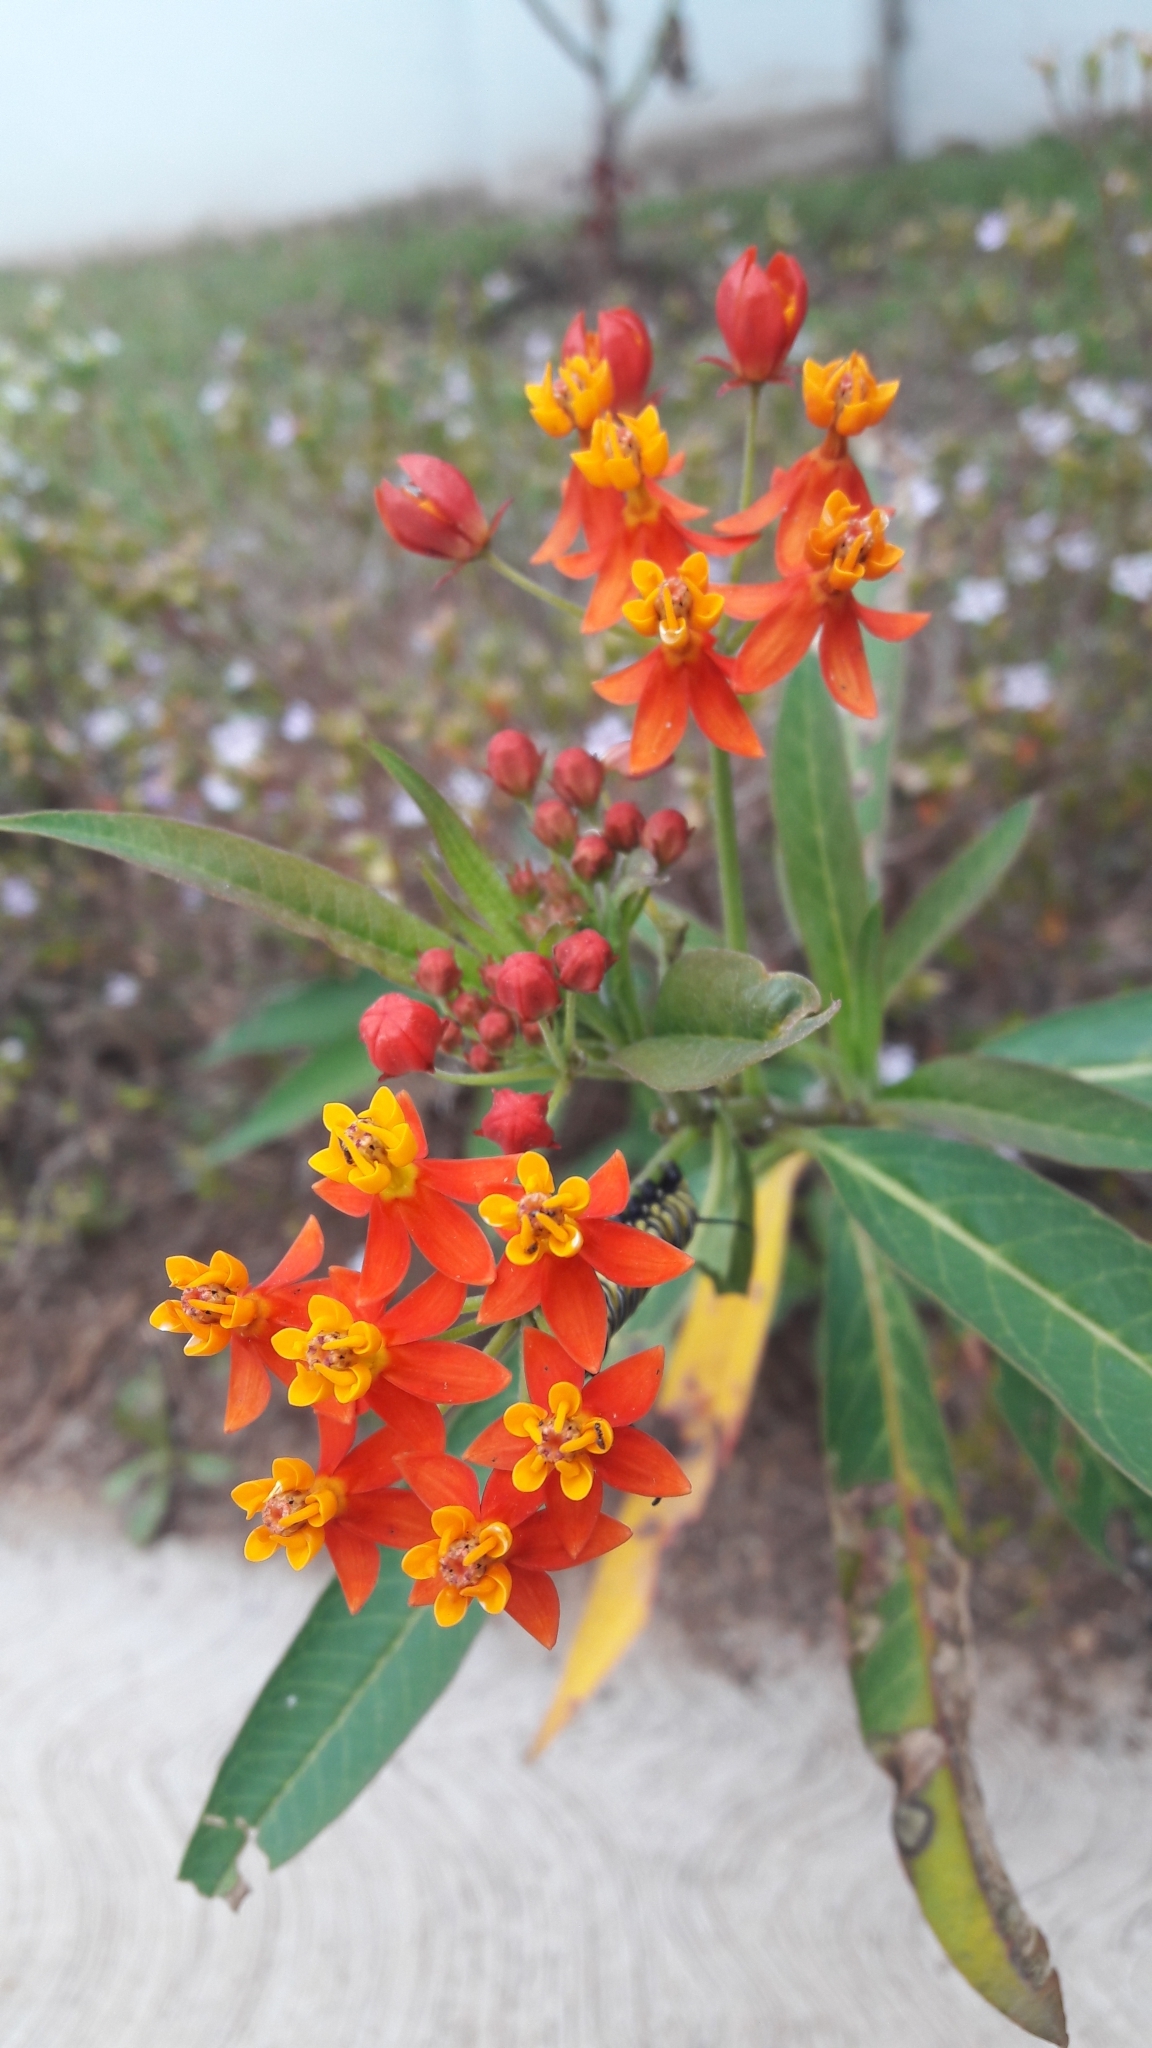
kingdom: Plantae
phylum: Tracheophyta
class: Magnoliopsida
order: Gentianales
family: Apocynaceae
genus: Asclepias
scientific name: Asclepias curassavica
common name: Bloodflower
